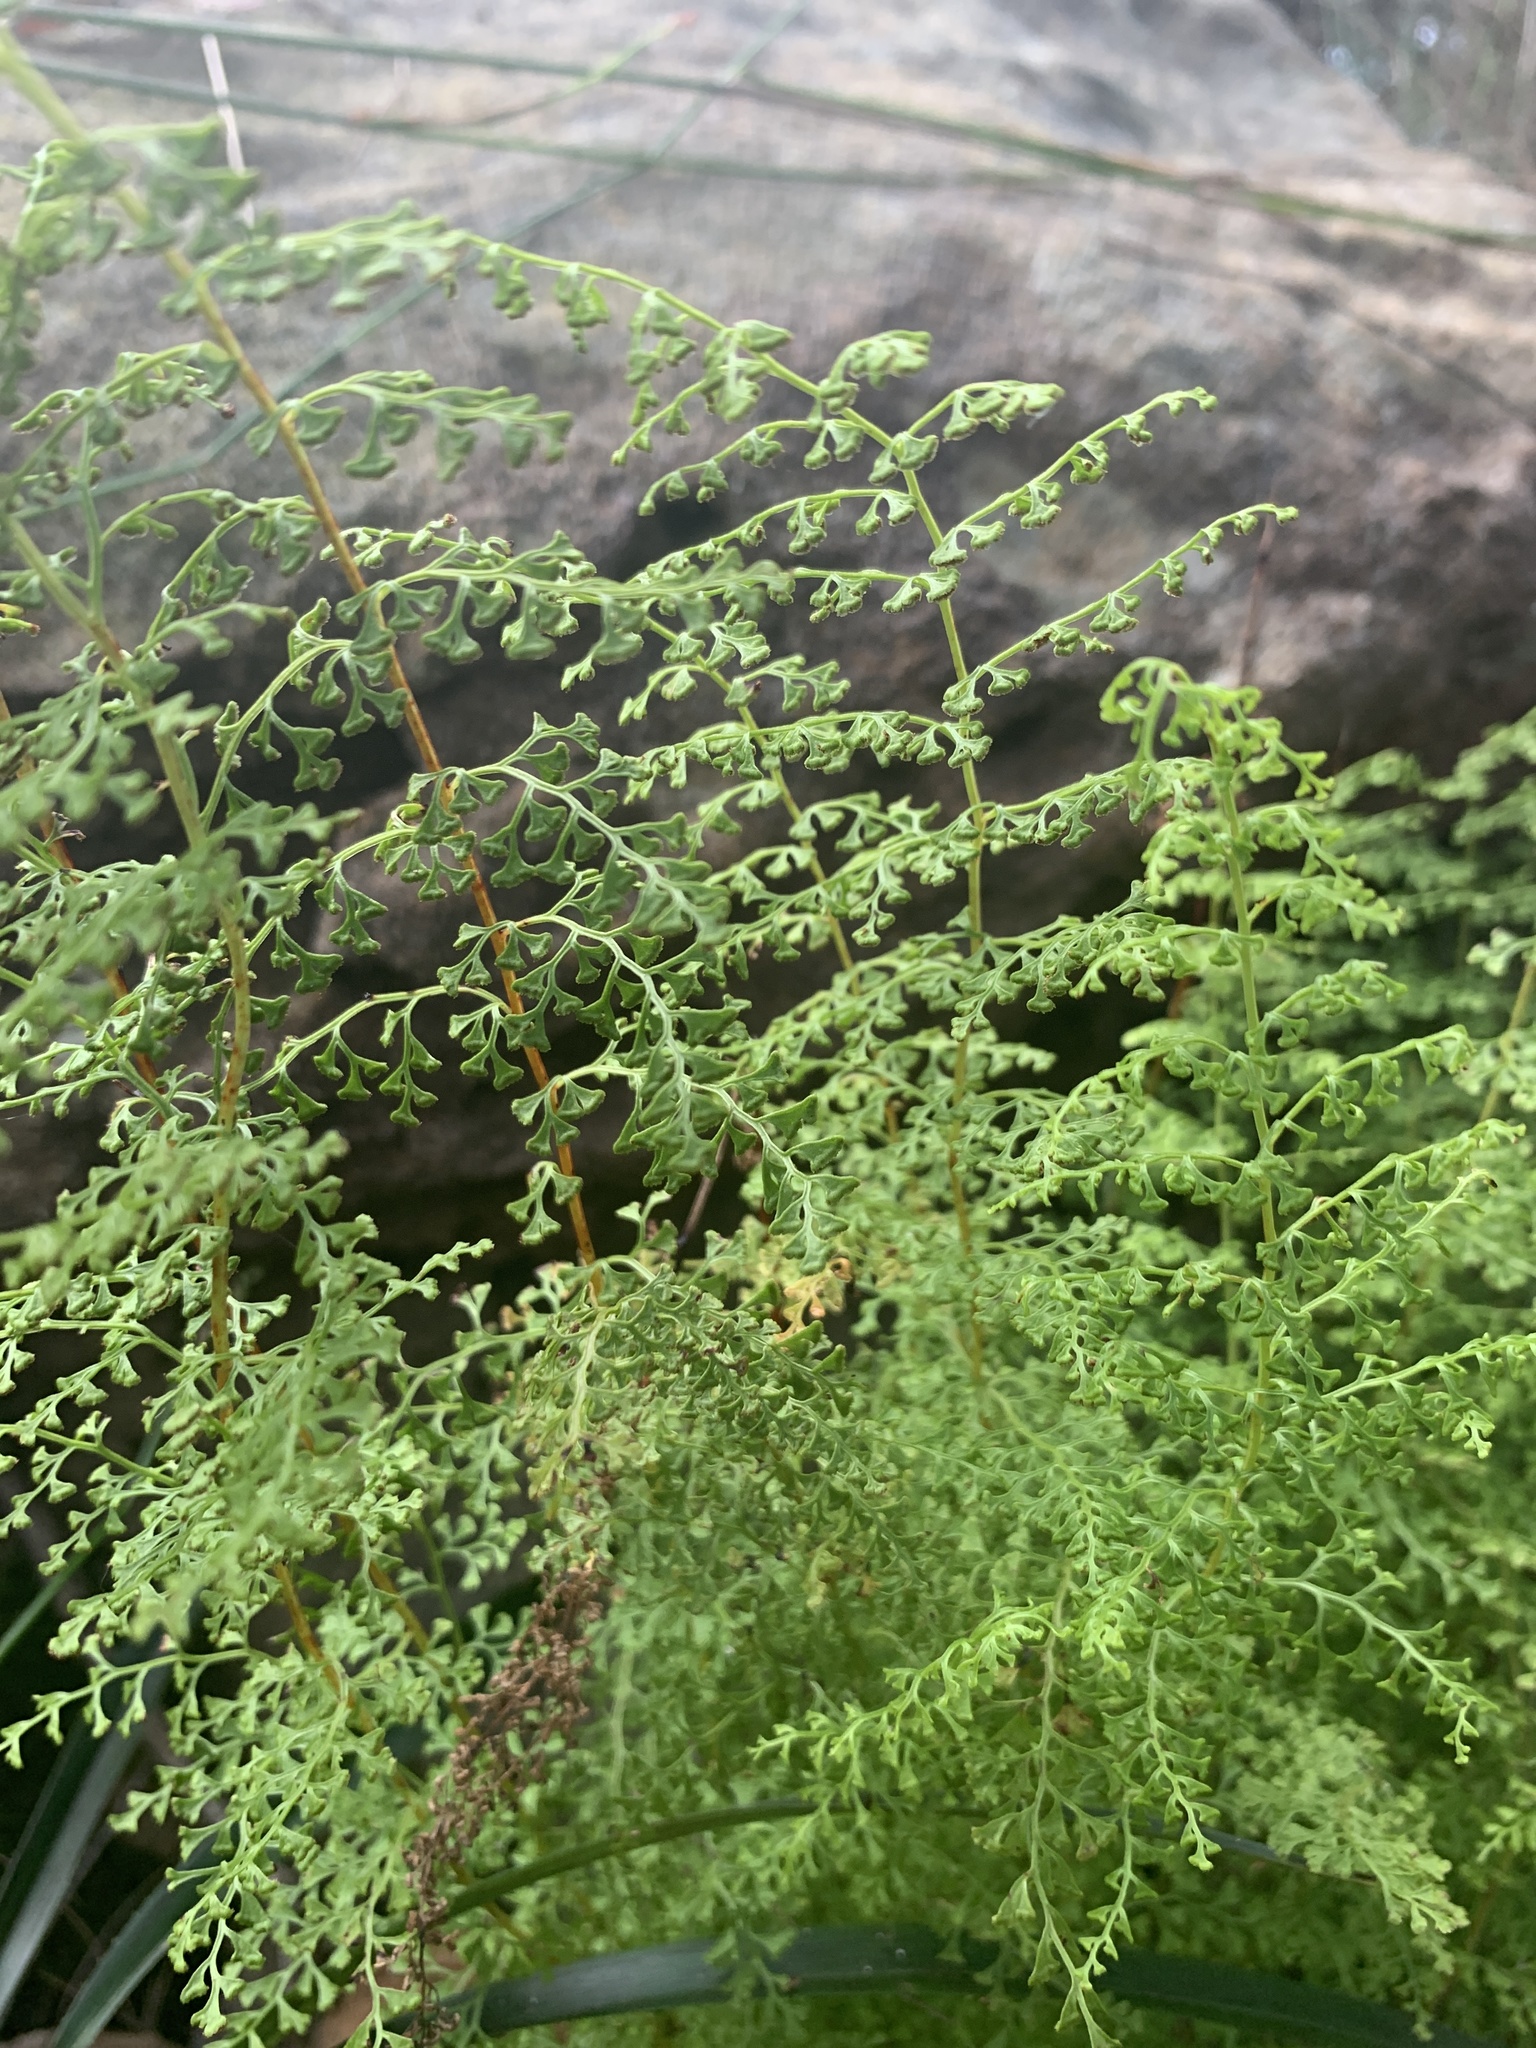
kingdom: Plantae
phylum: Tracheophyta
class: Polypodiopsida
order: Polypodiales
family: Lindsaeaceae
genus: Lindsaea
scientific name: Lindsaea microphylla
